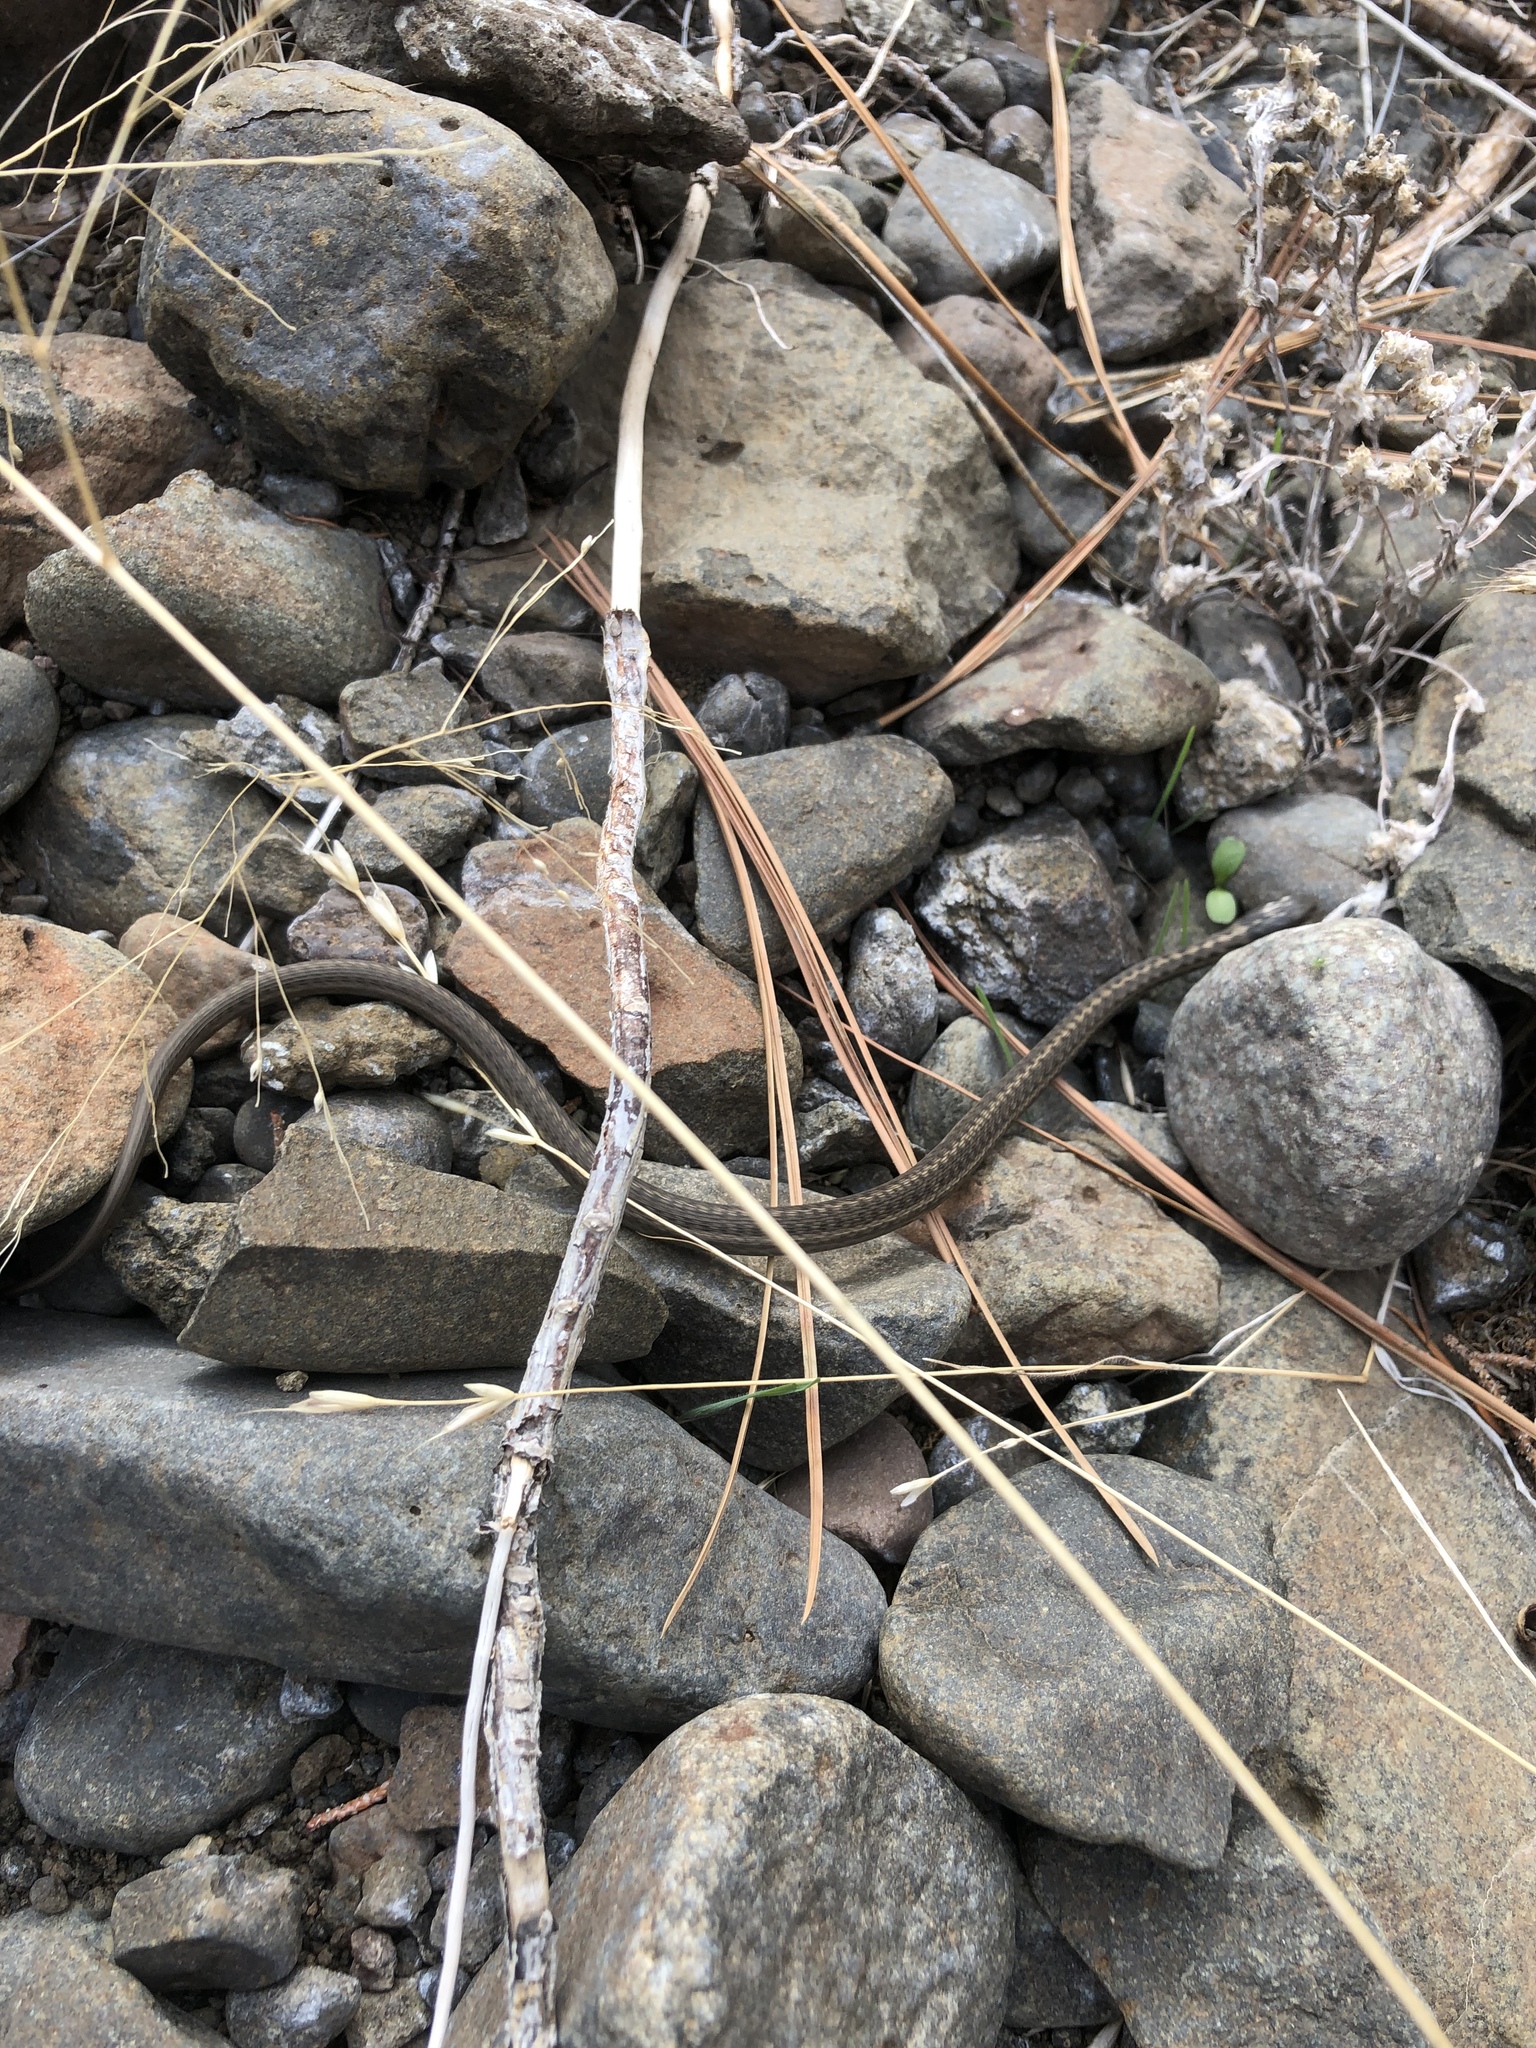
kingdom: Animalia
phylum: Chordata
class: Squamata
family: Colubridae
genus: Thamnophis
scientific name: Thamnophis elegans
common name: Western terrestrial garter snake
